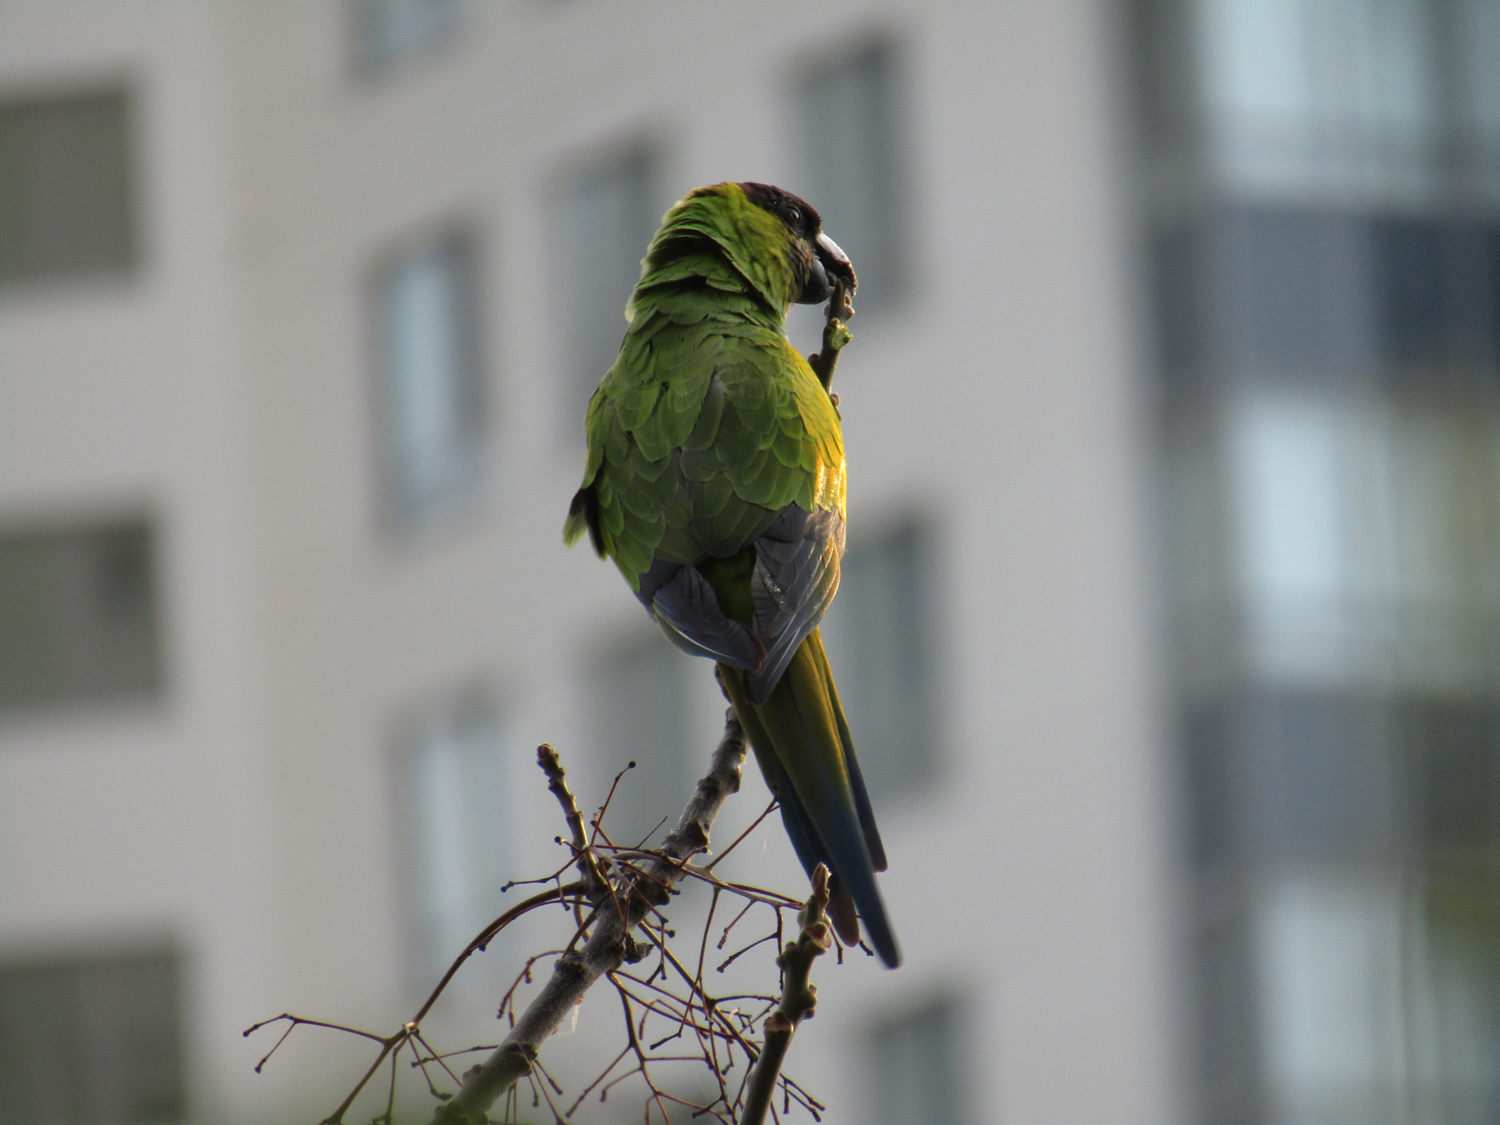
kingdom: Animalia
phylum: Chordata
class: Aves
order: Psittaciformes
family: Psittacidae
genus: Nandayus
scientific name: Nandayus nenday
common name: Nanday parakeet
